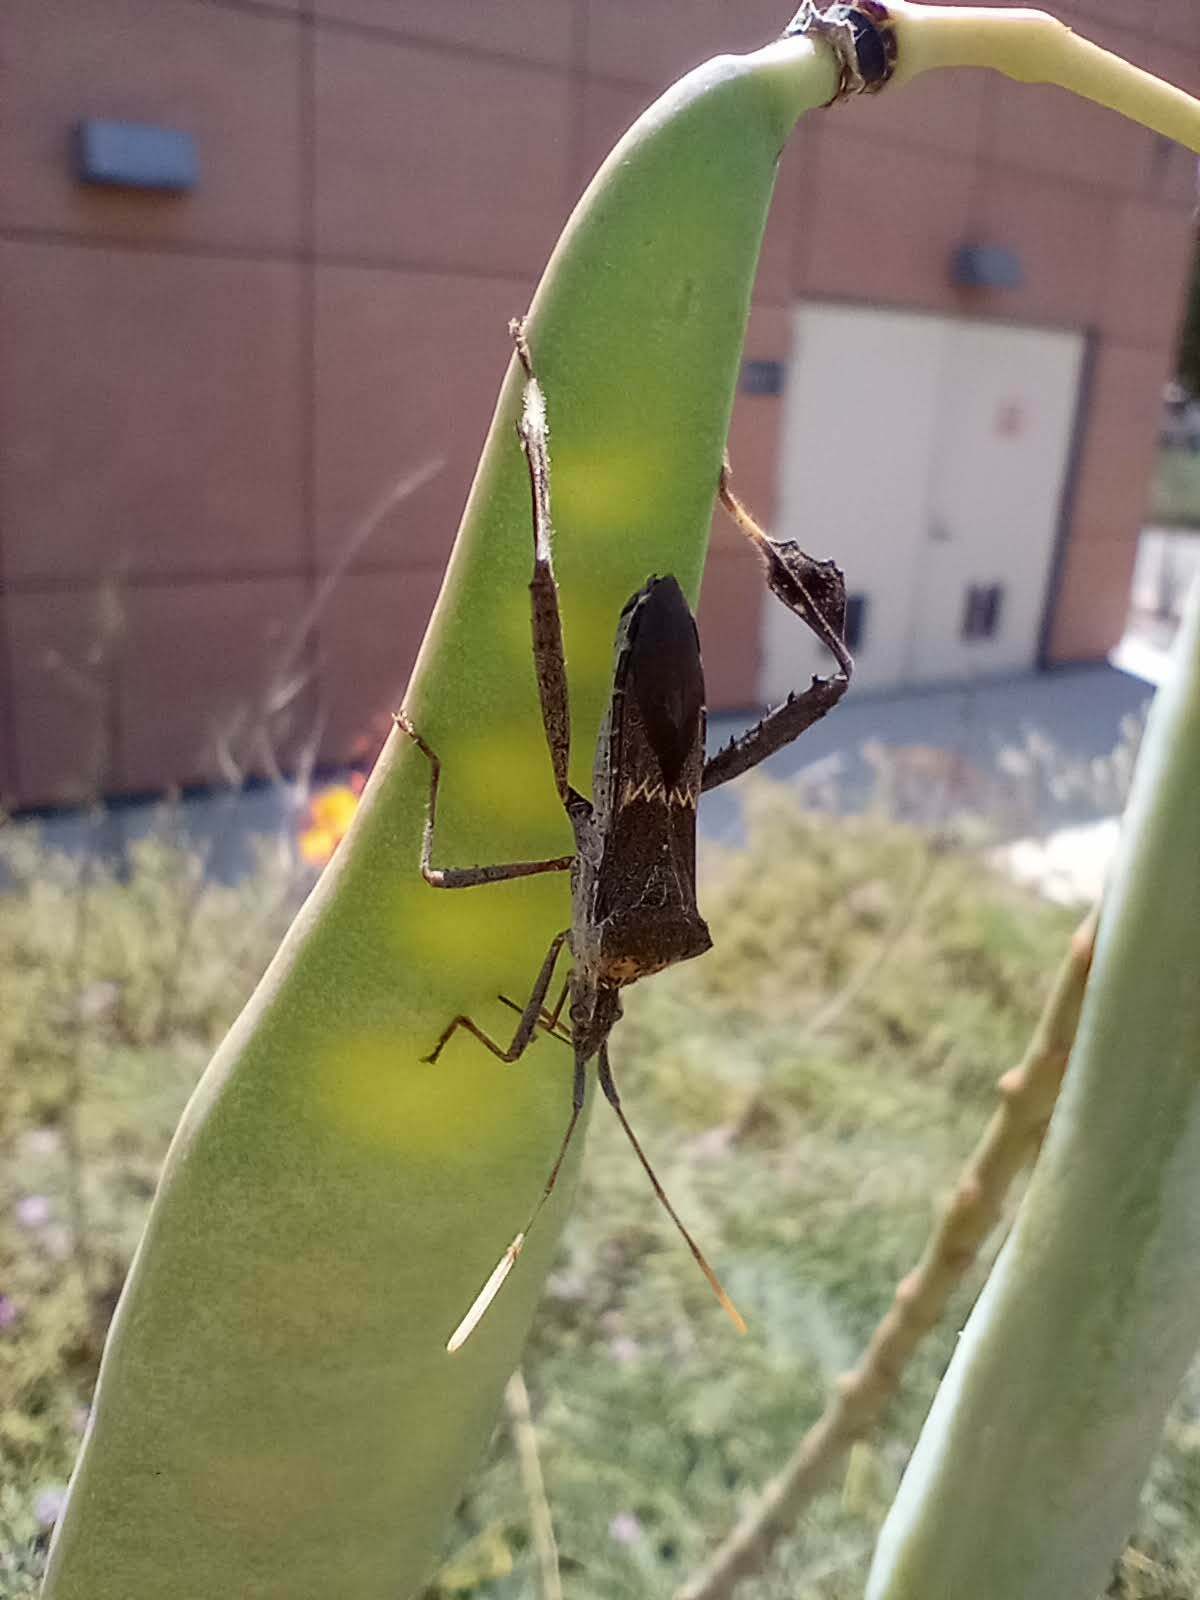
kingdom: Animalia
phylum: Arthropoda
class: Insecta
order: Hemiptera
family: Coreidae
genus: Leptoglossus
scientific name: Leptoglossus zonatus
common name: Large-legged bug
